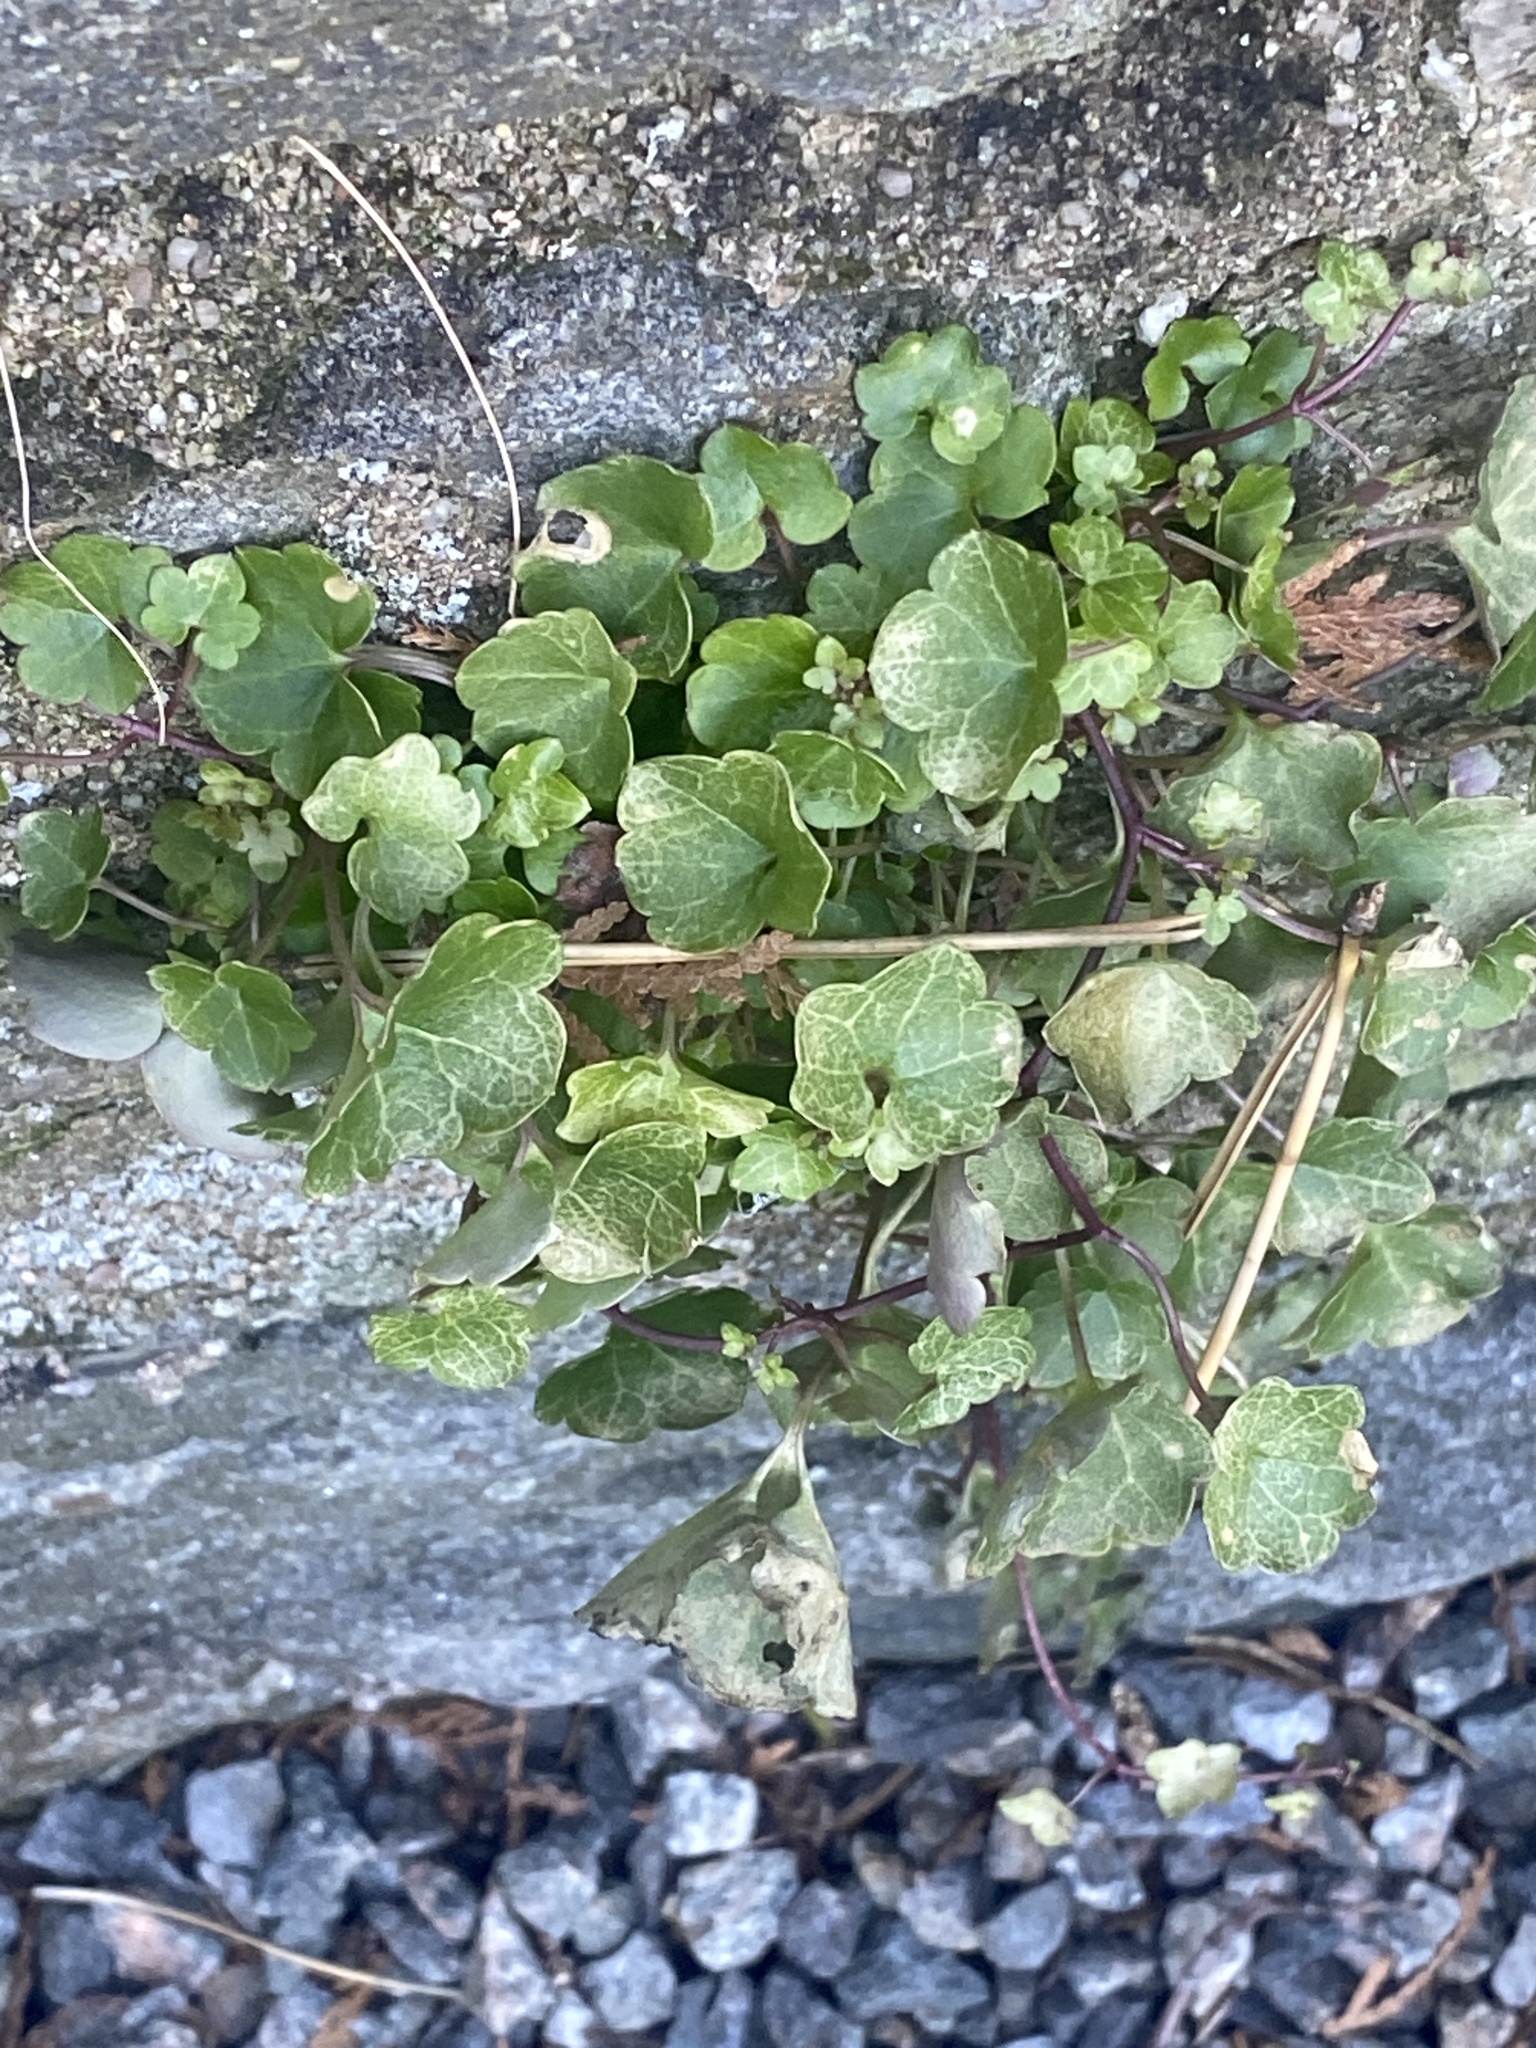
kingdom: Plantae
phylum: Tracheophyta
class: Magnoliopsida
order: Lamiales
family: Plantaginaceae
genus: Cymbalaria
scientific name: Cymbalaria muralis
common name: Ivy-leaved toadflax
